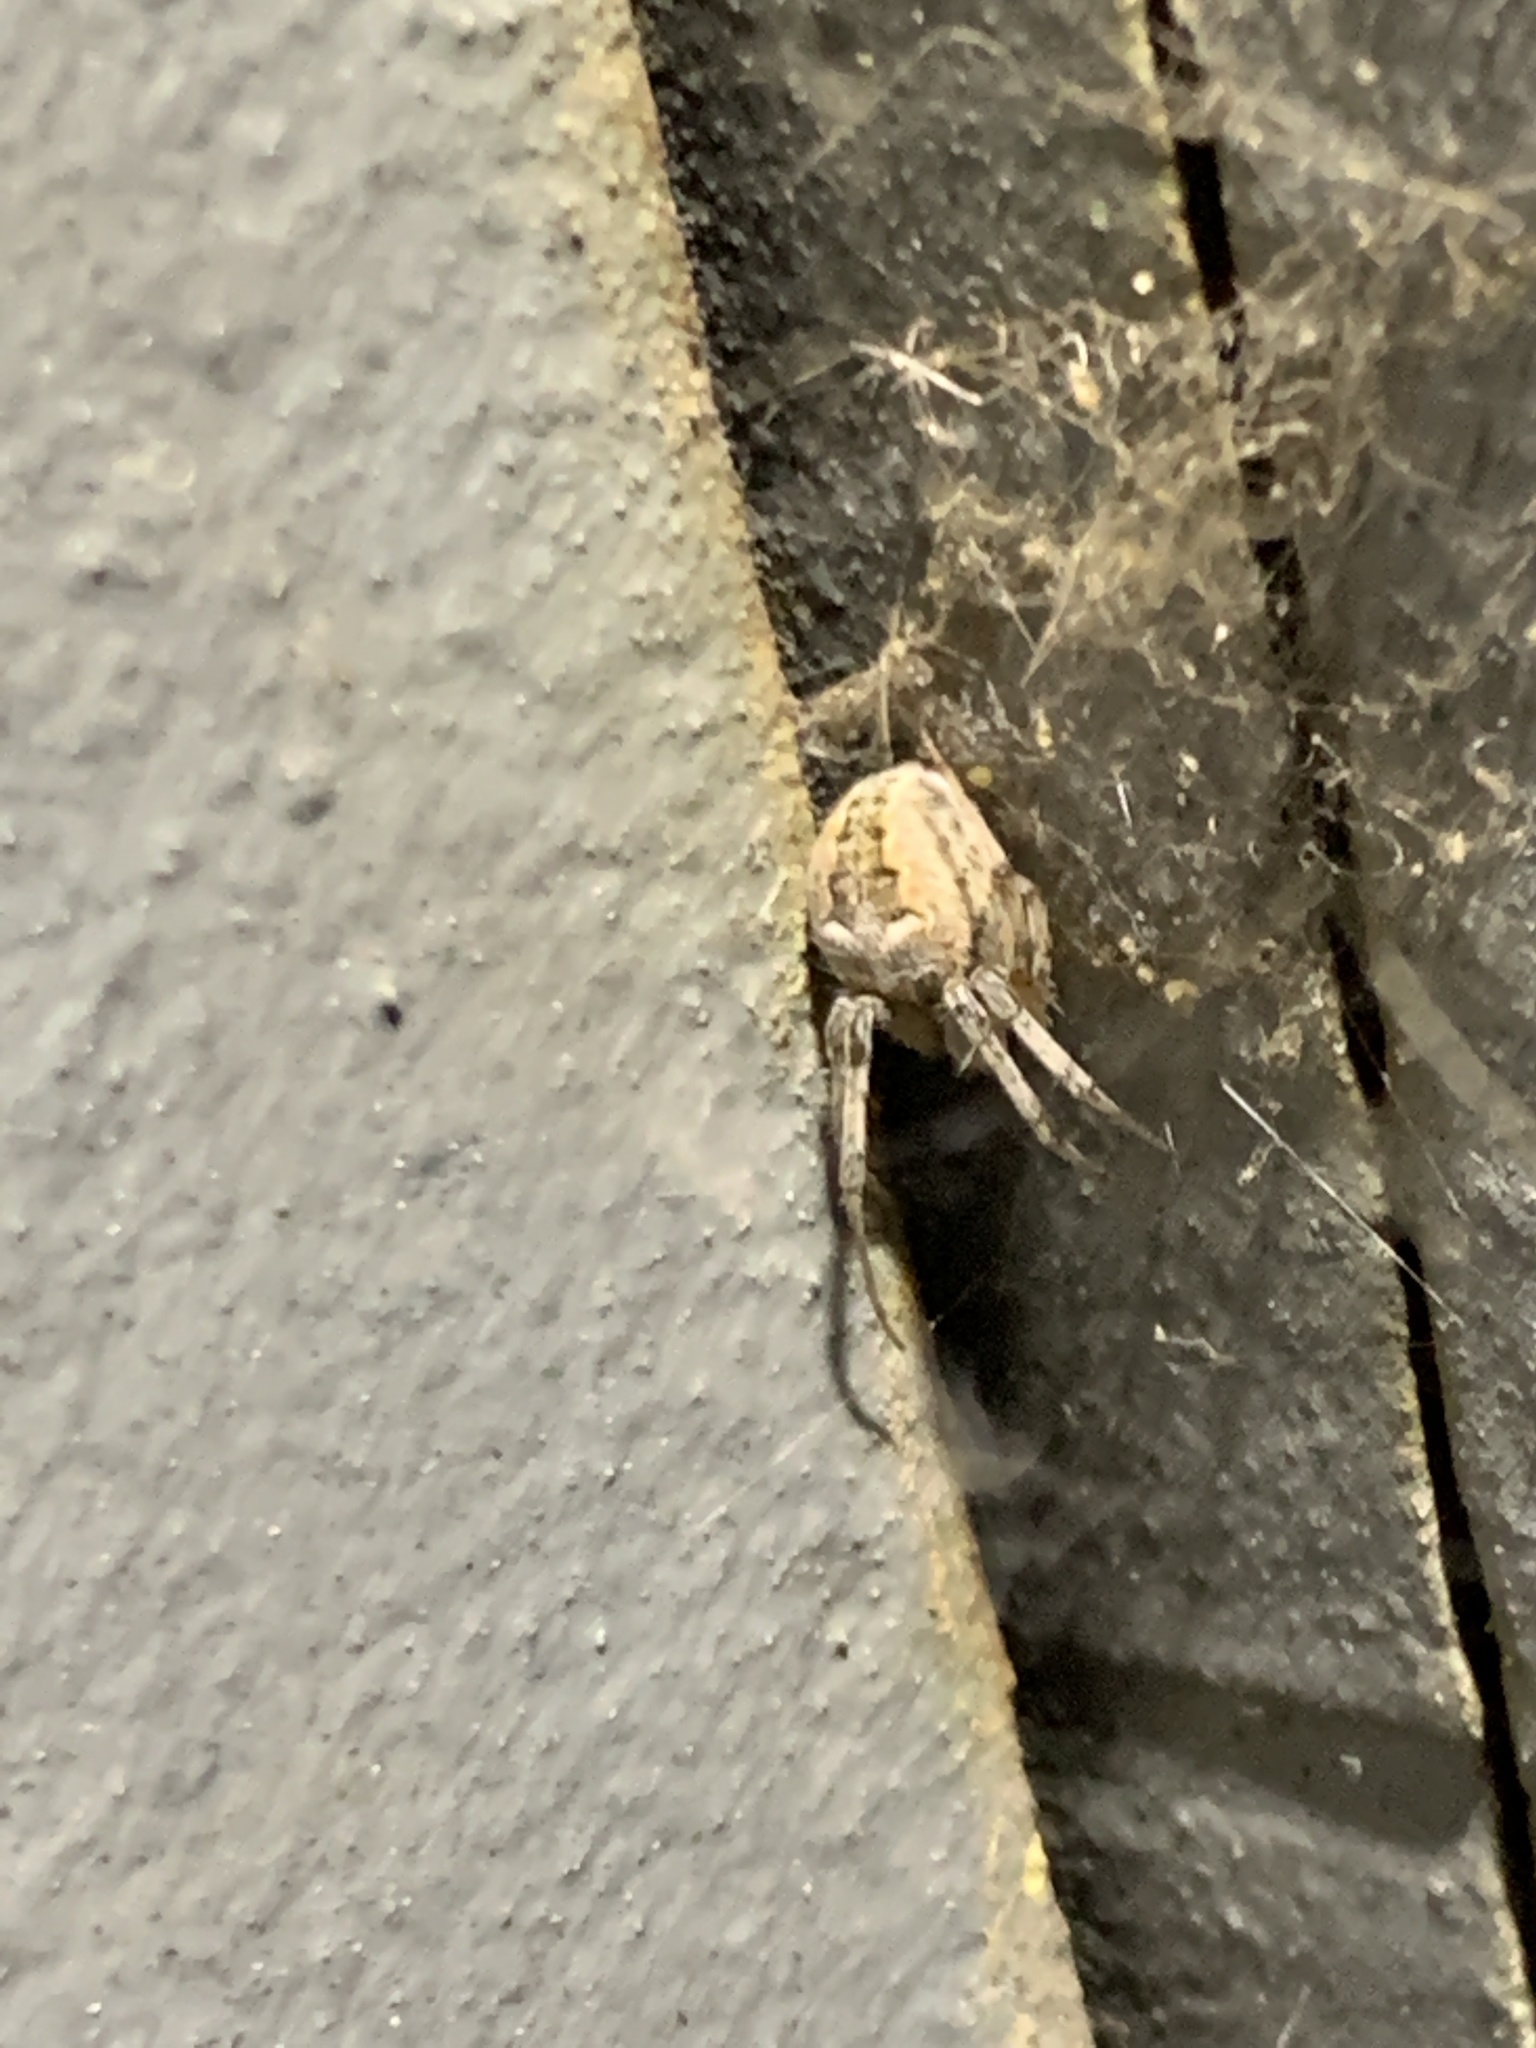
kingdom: Animalia
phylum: Arthropoda
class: Arachnida
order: Araneae
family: Araneidae
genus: Metepeira
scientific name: Metepeira
